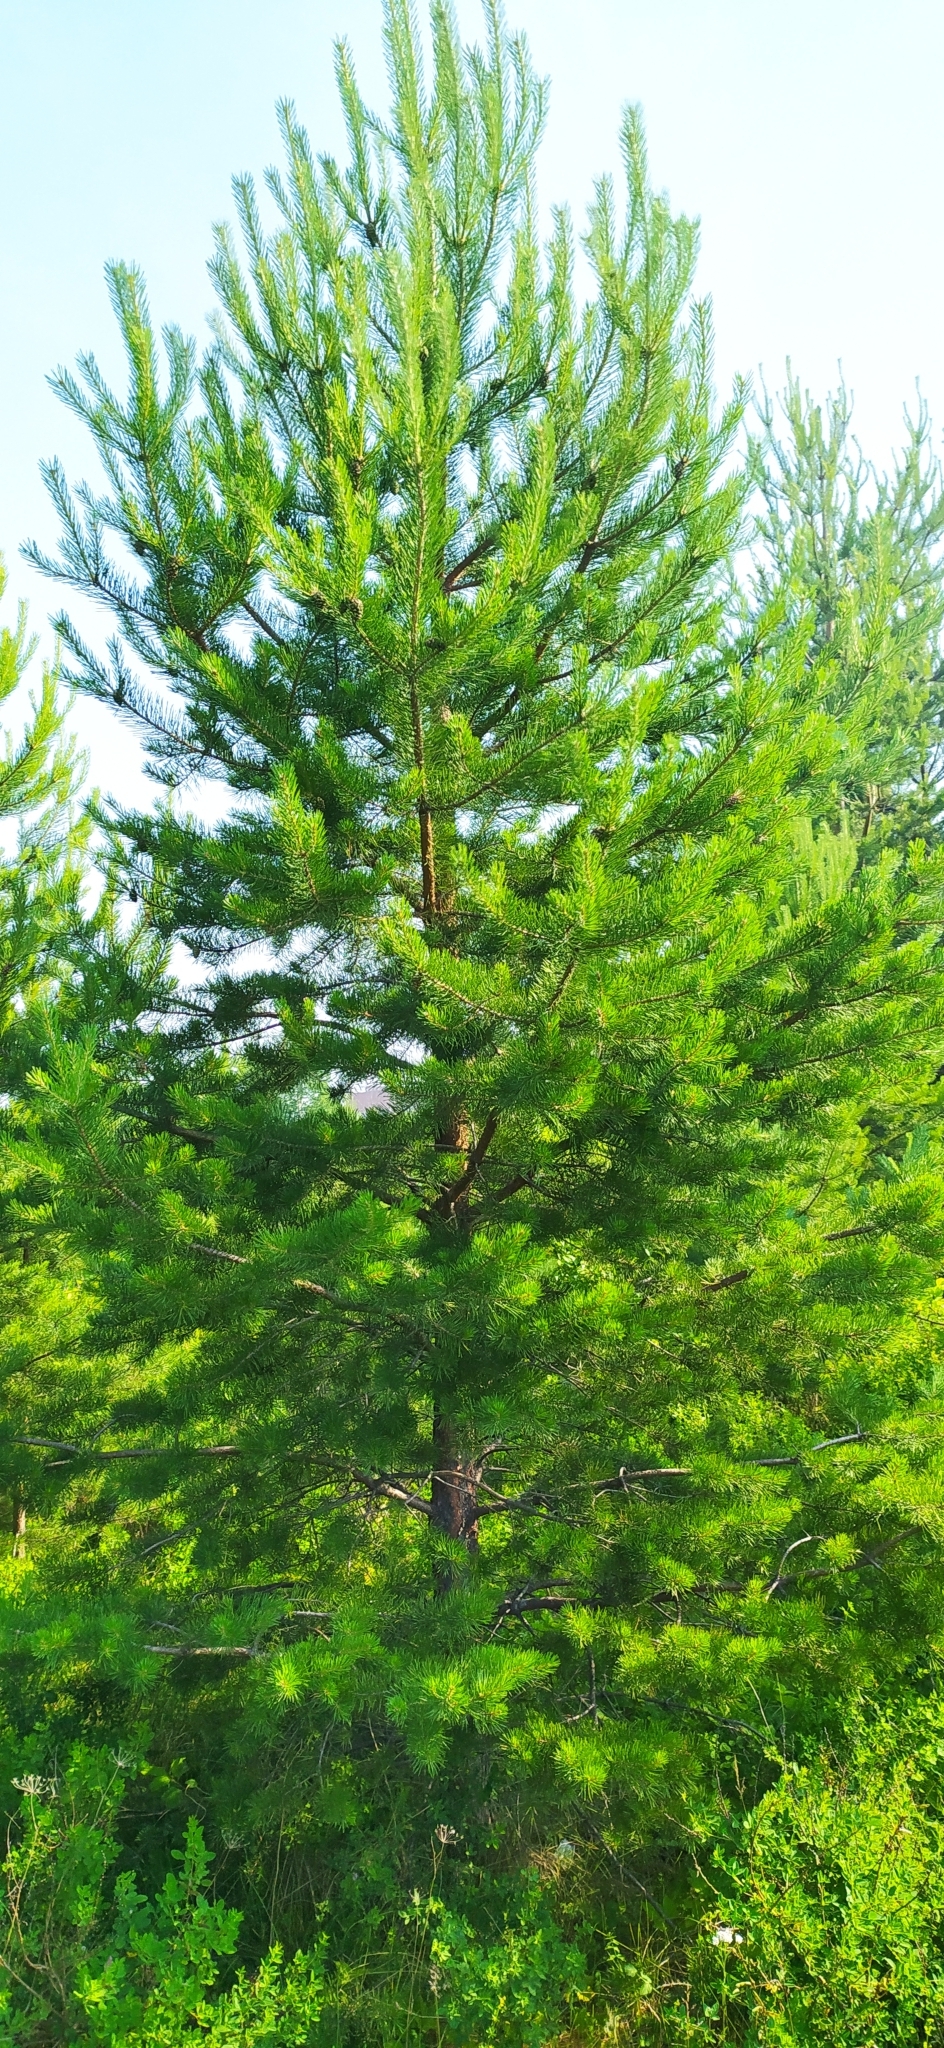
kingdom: Plantae
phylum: Tracheophyta
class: Pinopsida
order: Pinales
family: Pinaceae
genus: Pinus
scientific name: Pinus sylvestris
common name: Scots pine
